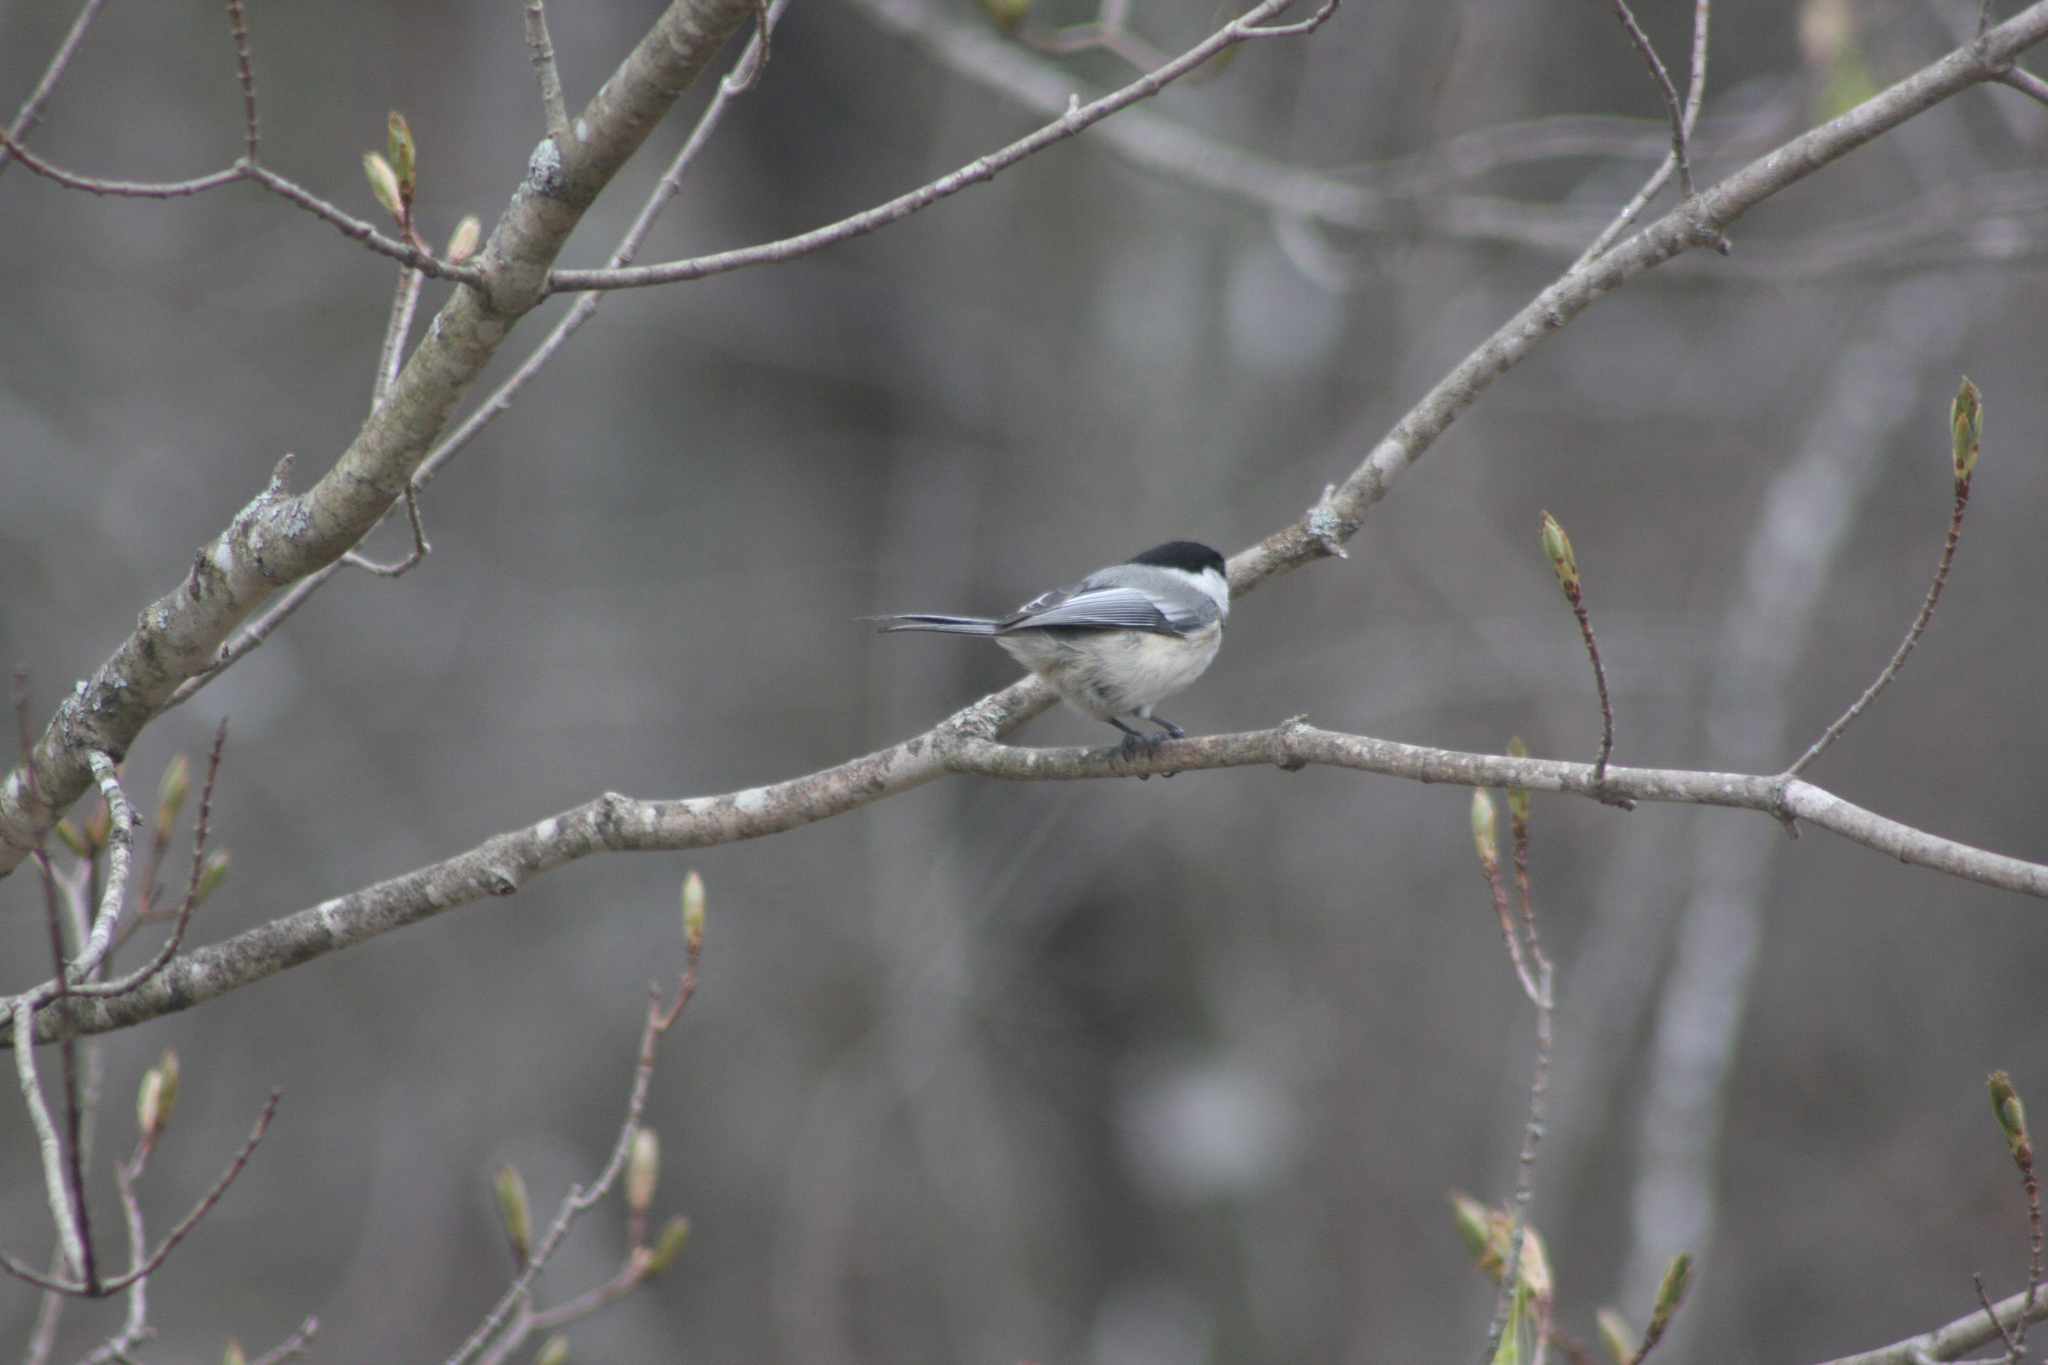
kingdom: Animalia
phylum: Chordata
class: Aves
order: Passeriformes
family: Paridae
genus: Poecile
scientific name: Poecile atricapillus
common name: Black-capped chickadee
